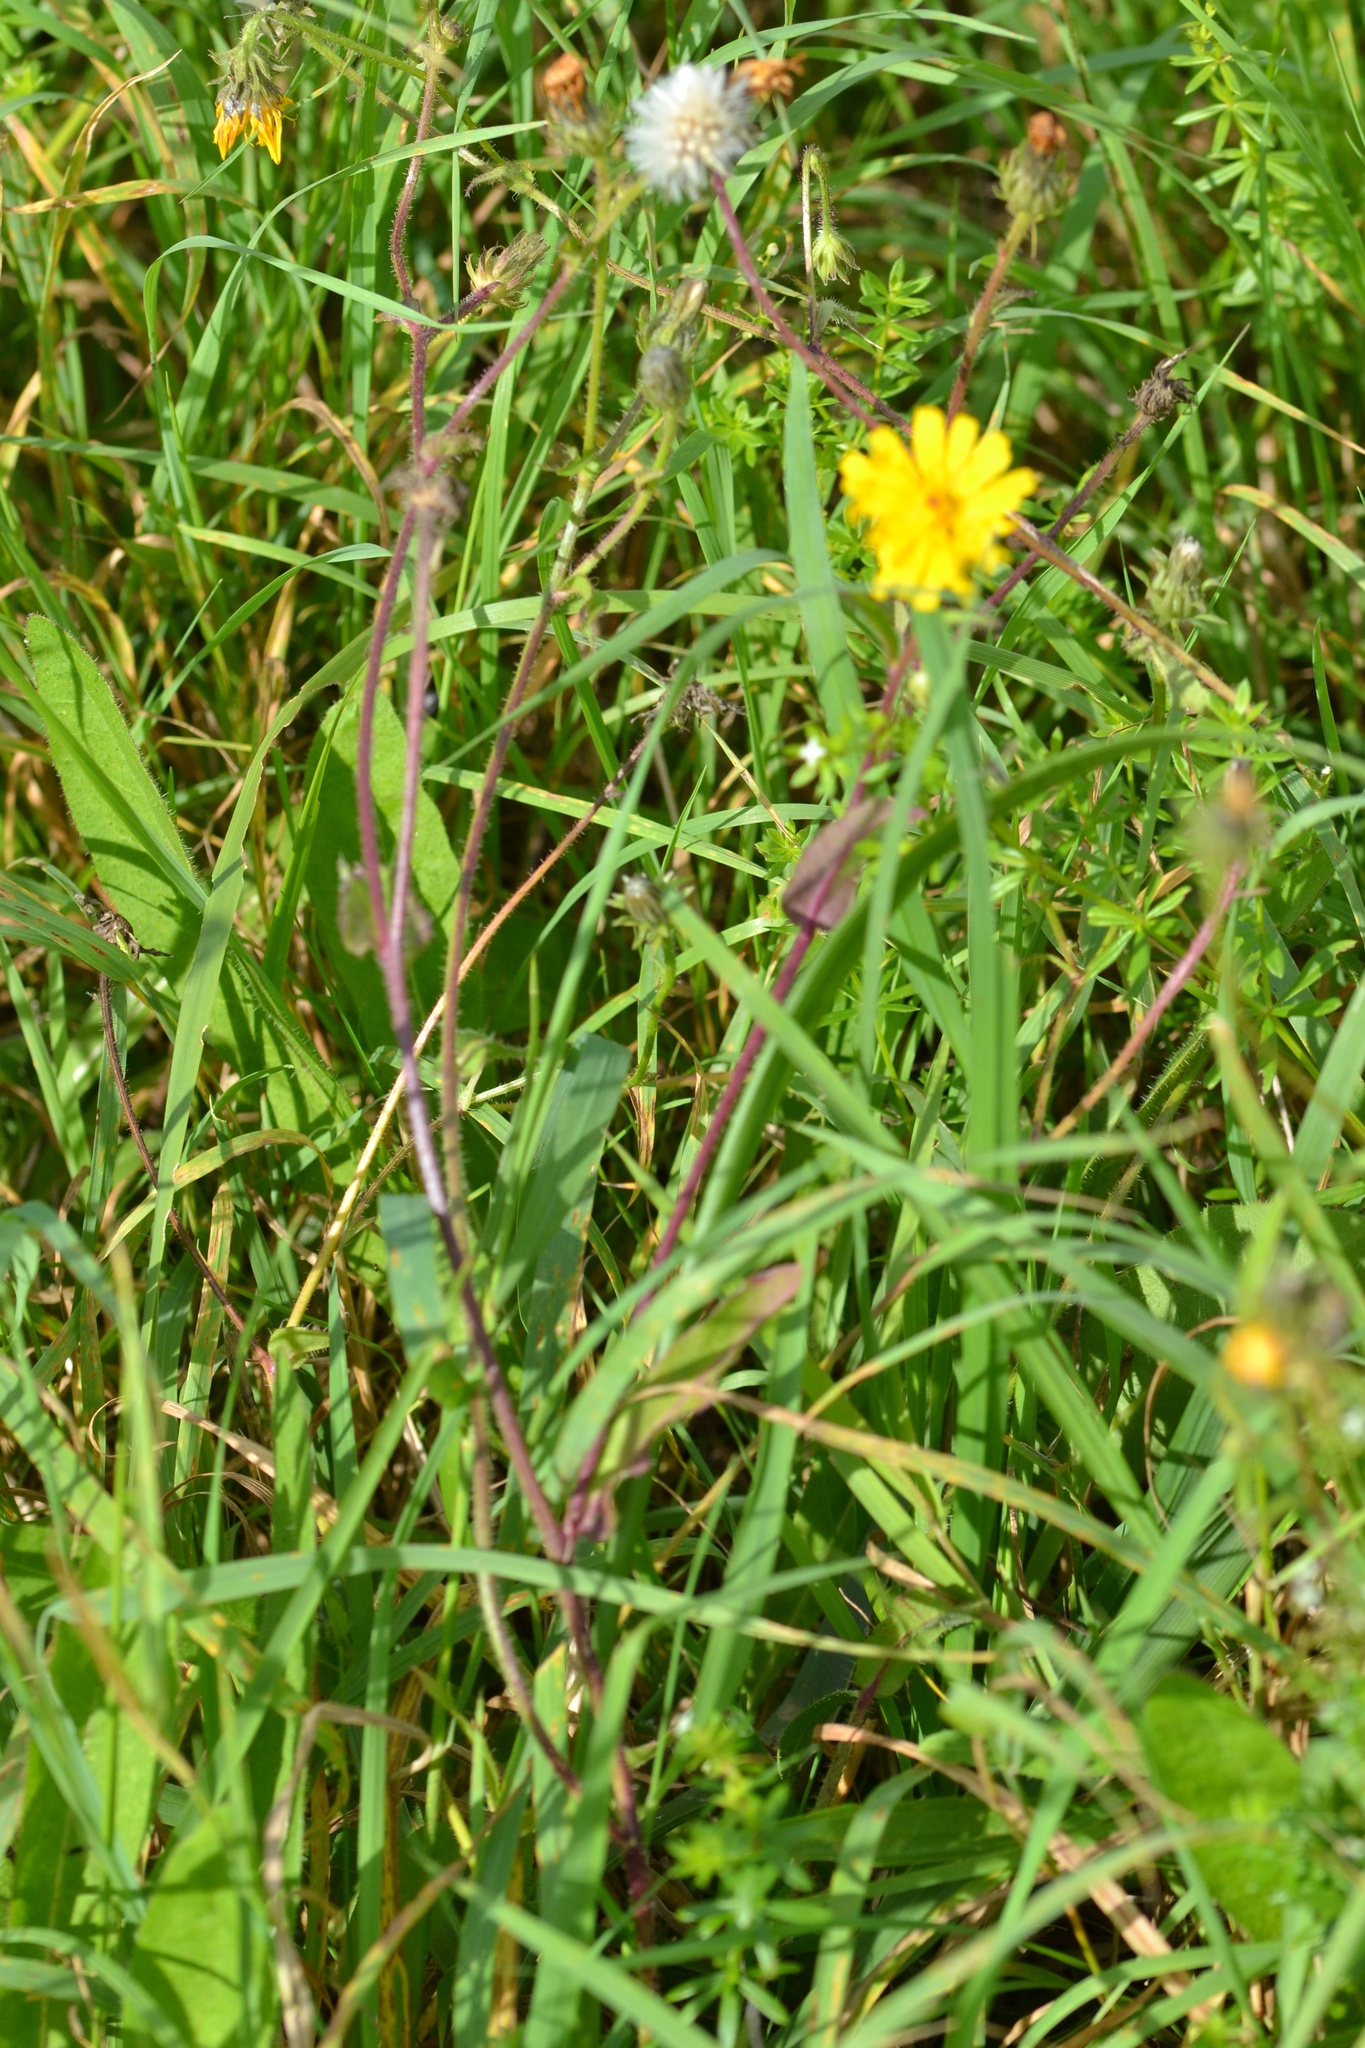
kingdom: Plantae
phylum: Tracheophyta
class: Magnoliopsida
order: Asterales
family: Asteraceae
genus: Picris
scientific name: Picris hieracioides
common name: Hawkweed oxtongue
